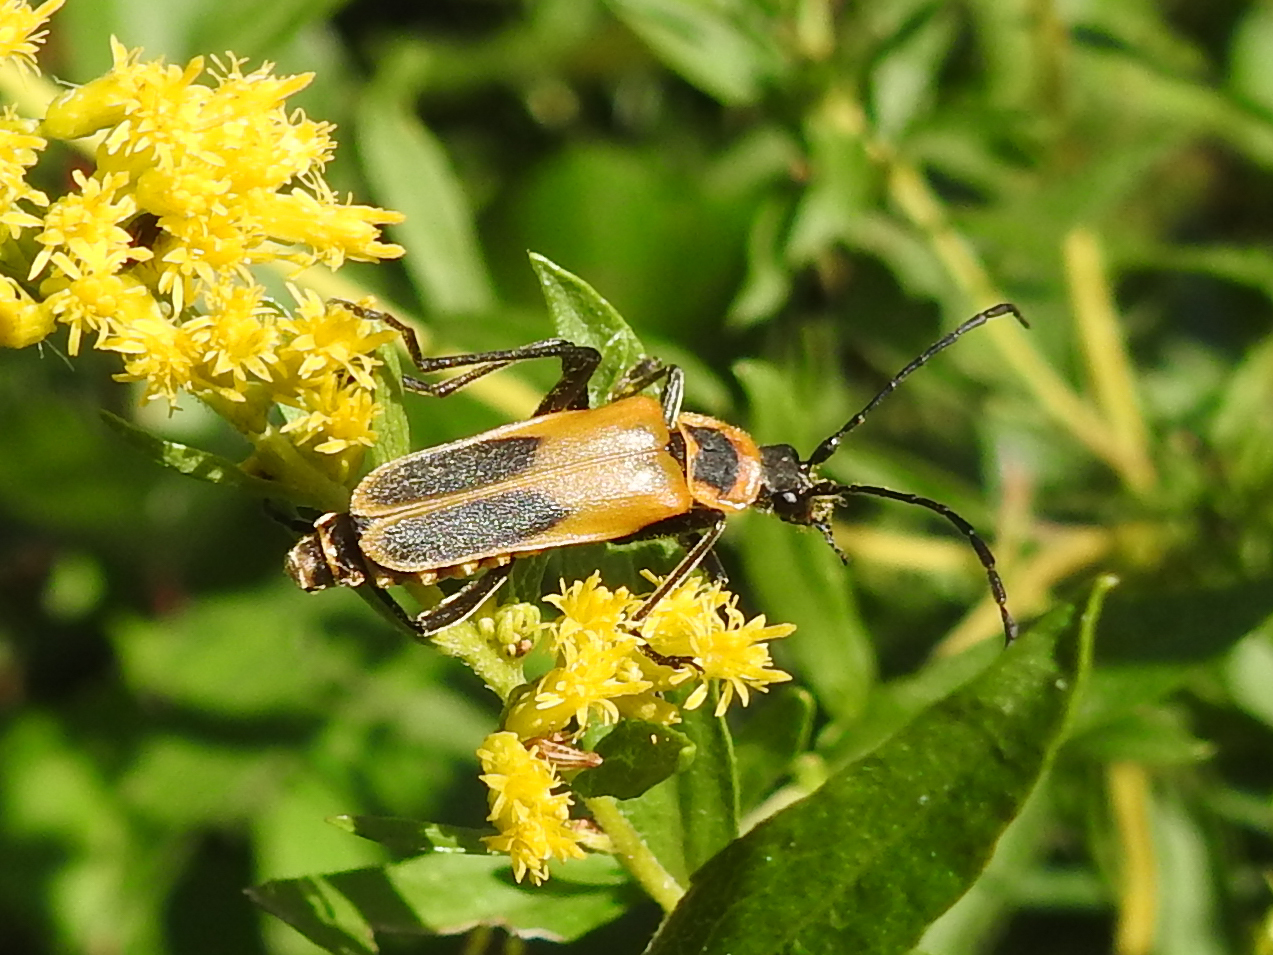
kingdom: Animalia
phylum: Arthropoda
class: Insecta
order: Coleoptera
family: Cantharidae
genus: Chauliognathus
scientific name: Chauliognathus pensylvanicus
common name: Goldenrod soldier beetle
